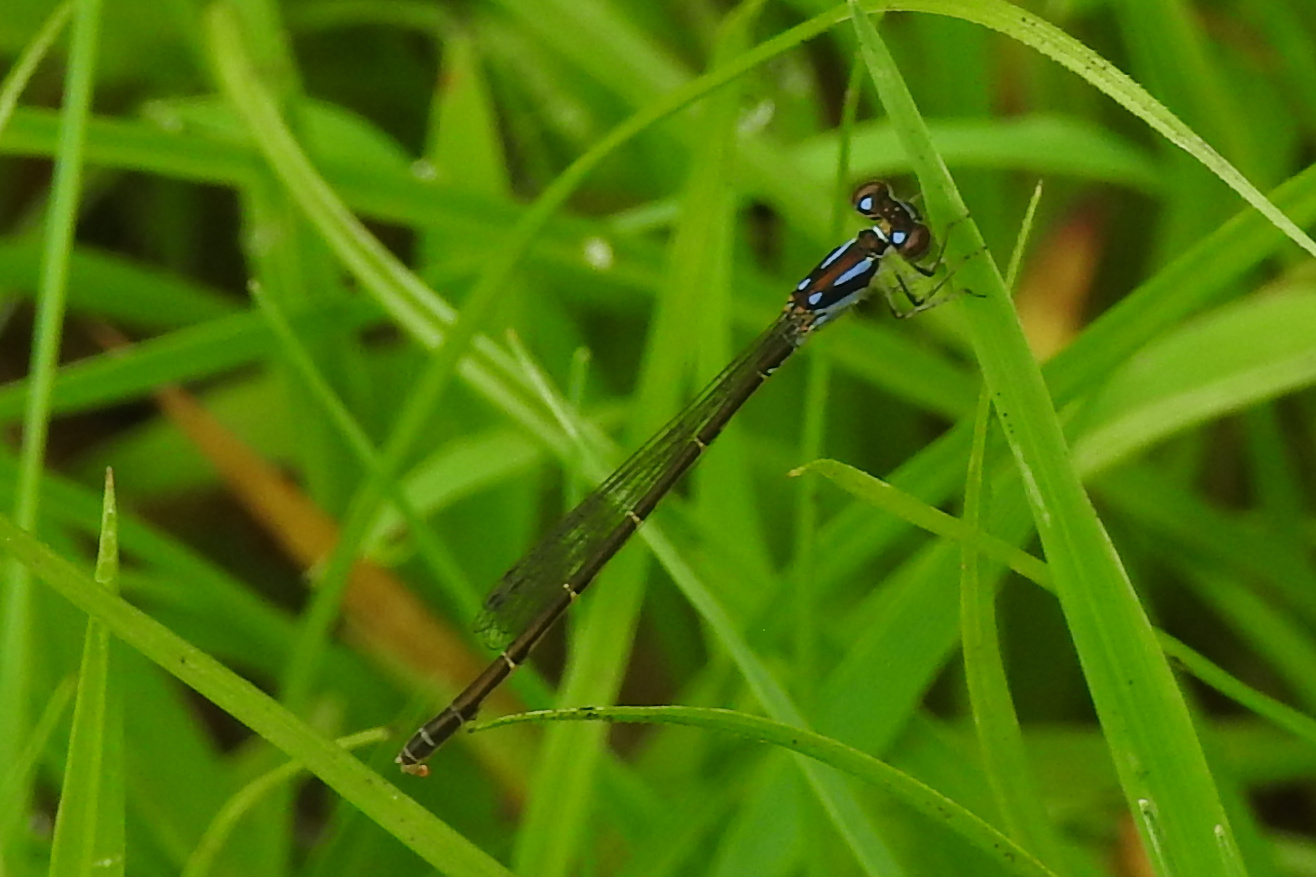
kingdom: Animalia
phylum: Arthropoda
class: Insecta
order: Odonata
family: Coenagrionidae
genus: Ischnura
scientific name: Ischnura posita
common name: Fragile forktail
